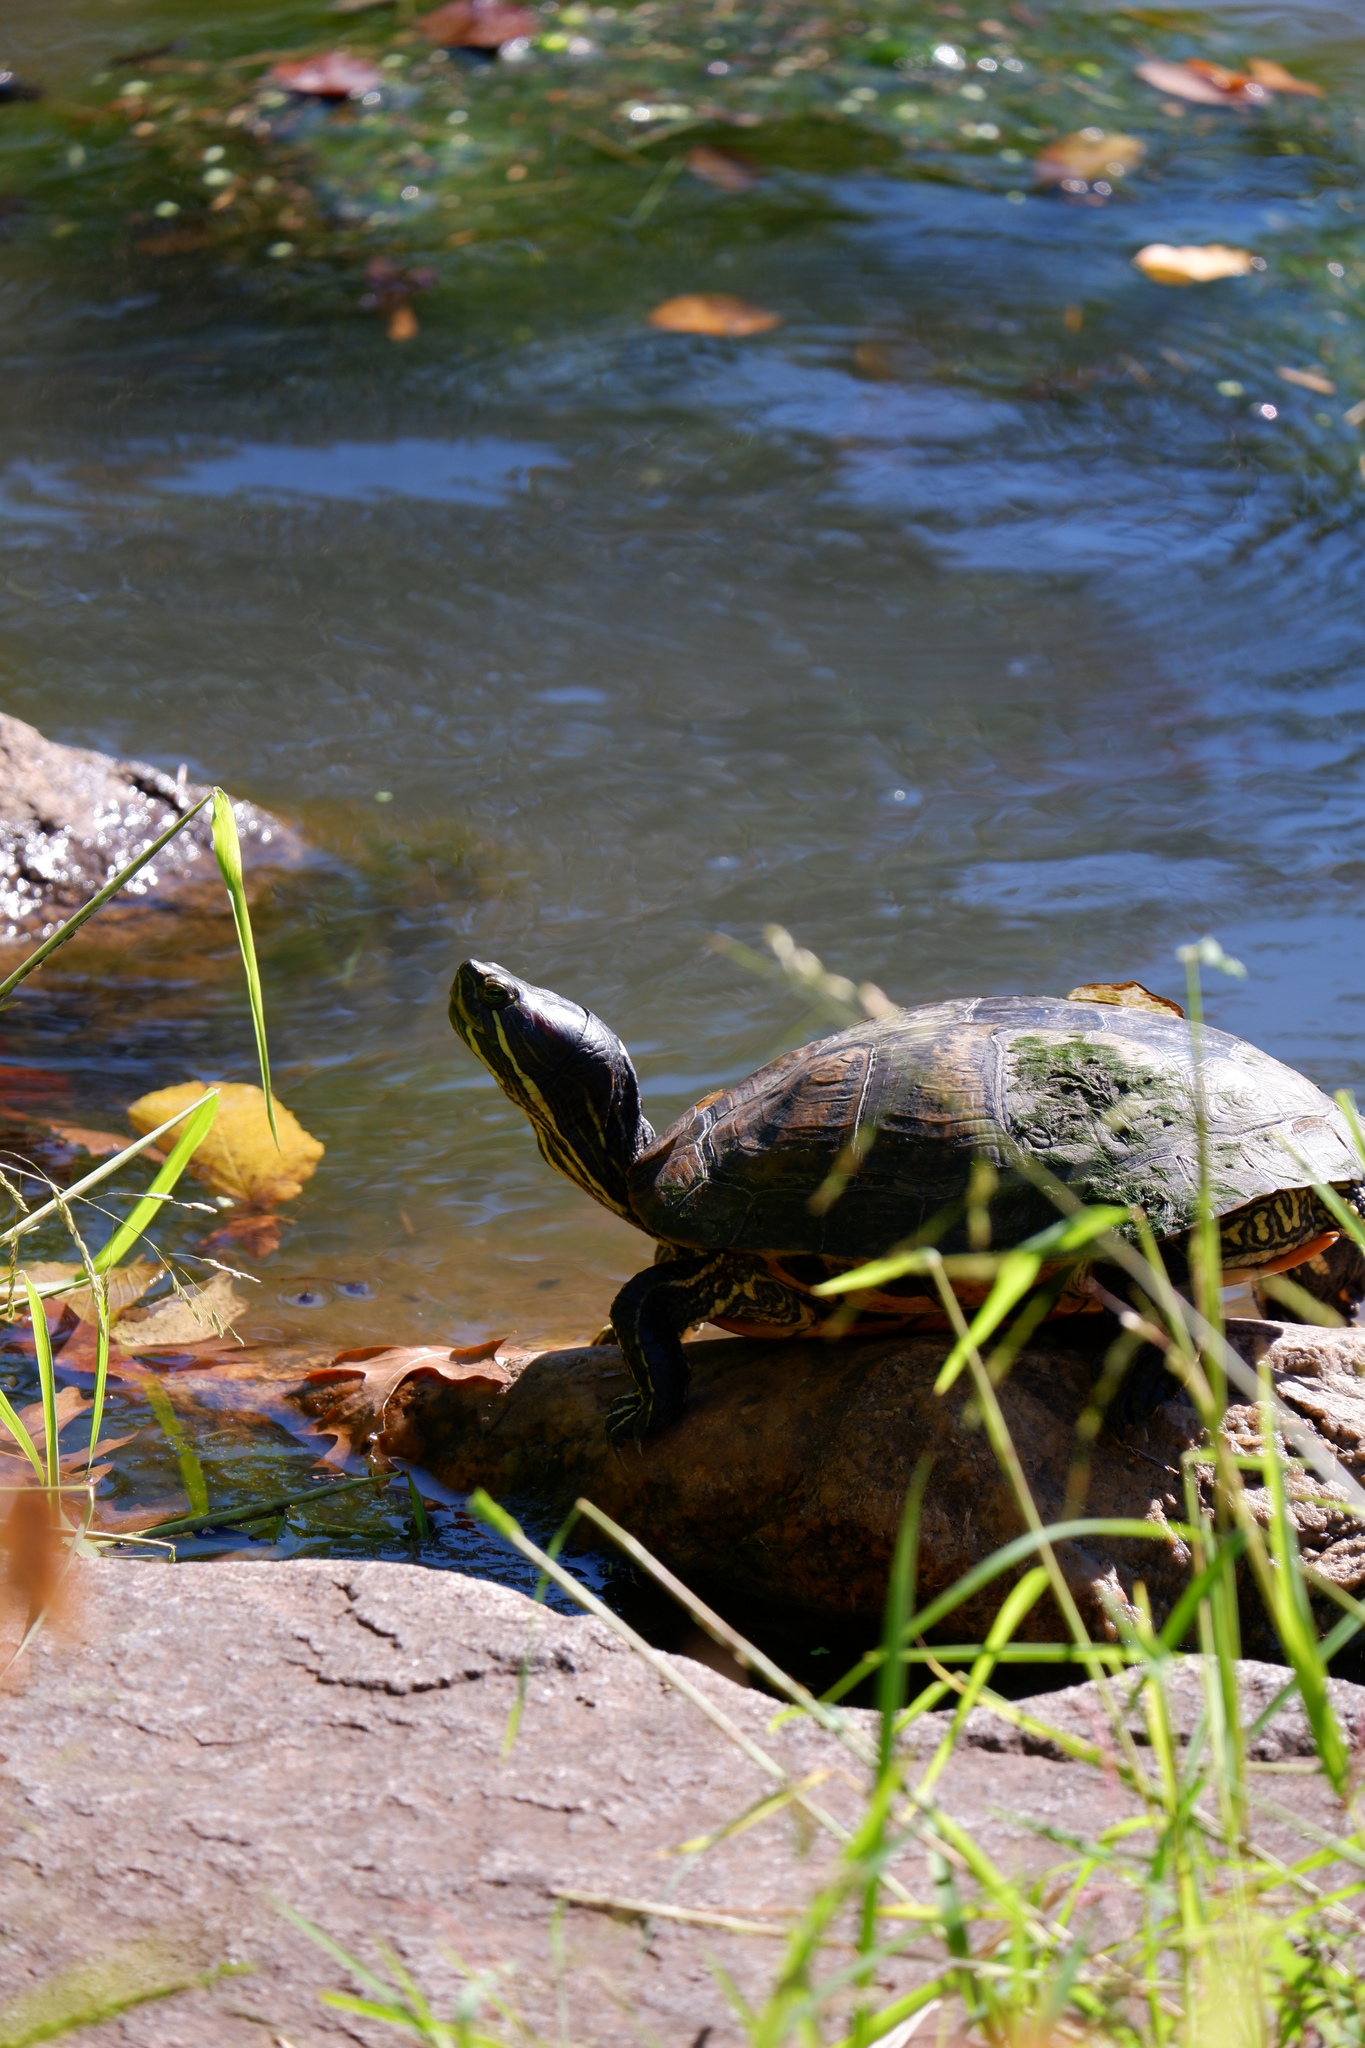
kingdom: Animalia
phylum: Chordata
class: Testudines
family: Emydidae
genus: Trachemys
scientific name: Trachemys scripta
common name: Slider
